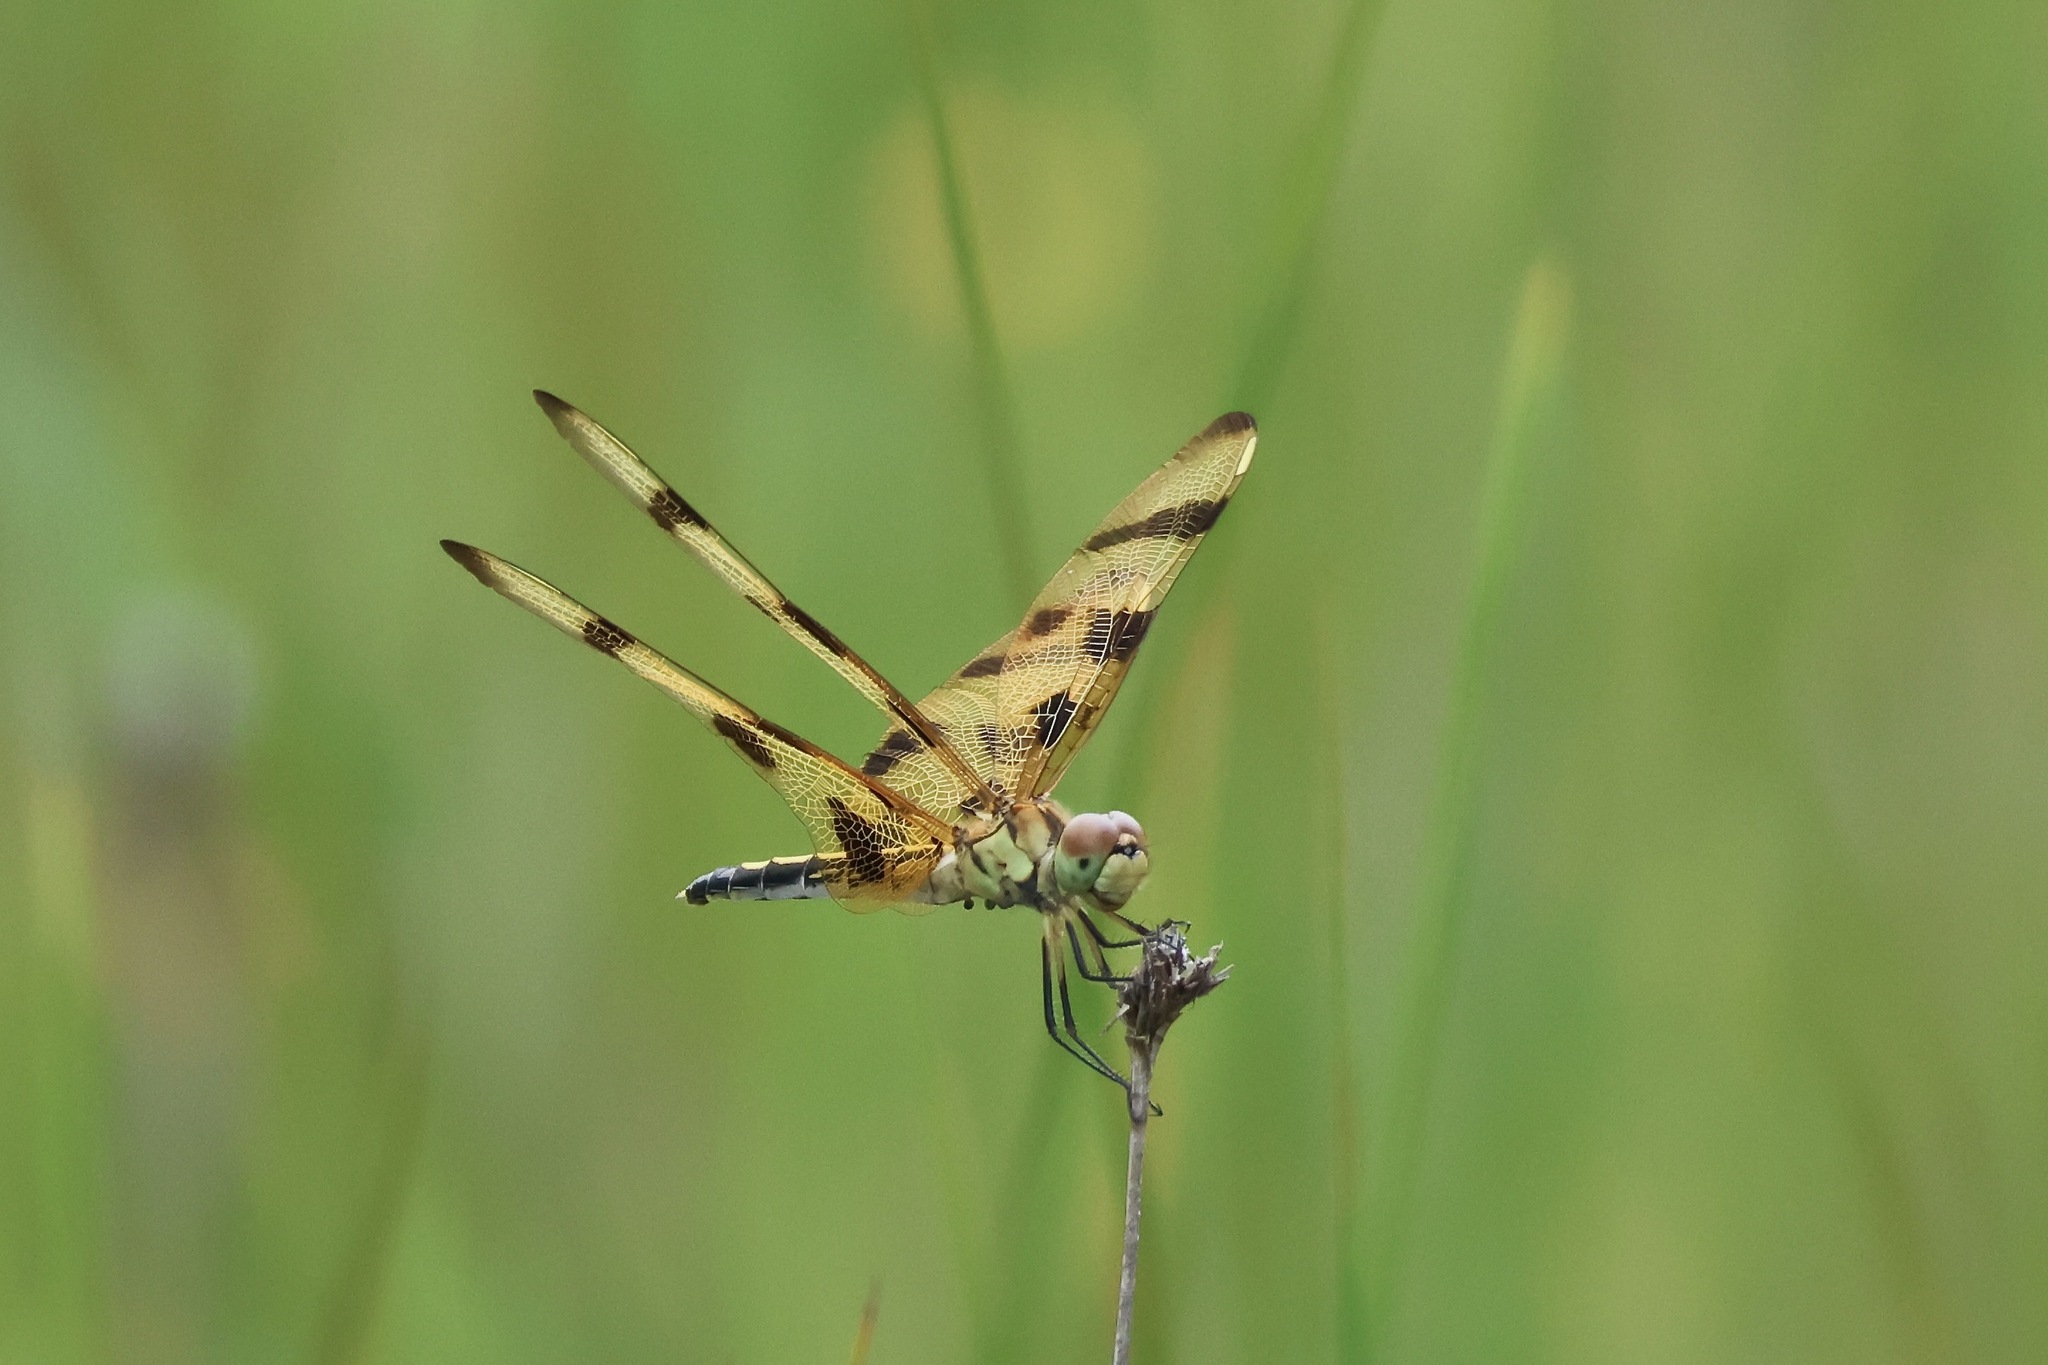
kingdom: Animalia
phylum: Arthropoda
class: Insecta
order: Odonata
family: Libellulidae
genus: Celithemis
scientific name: Celithemis eponina
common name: Halloween pennant
